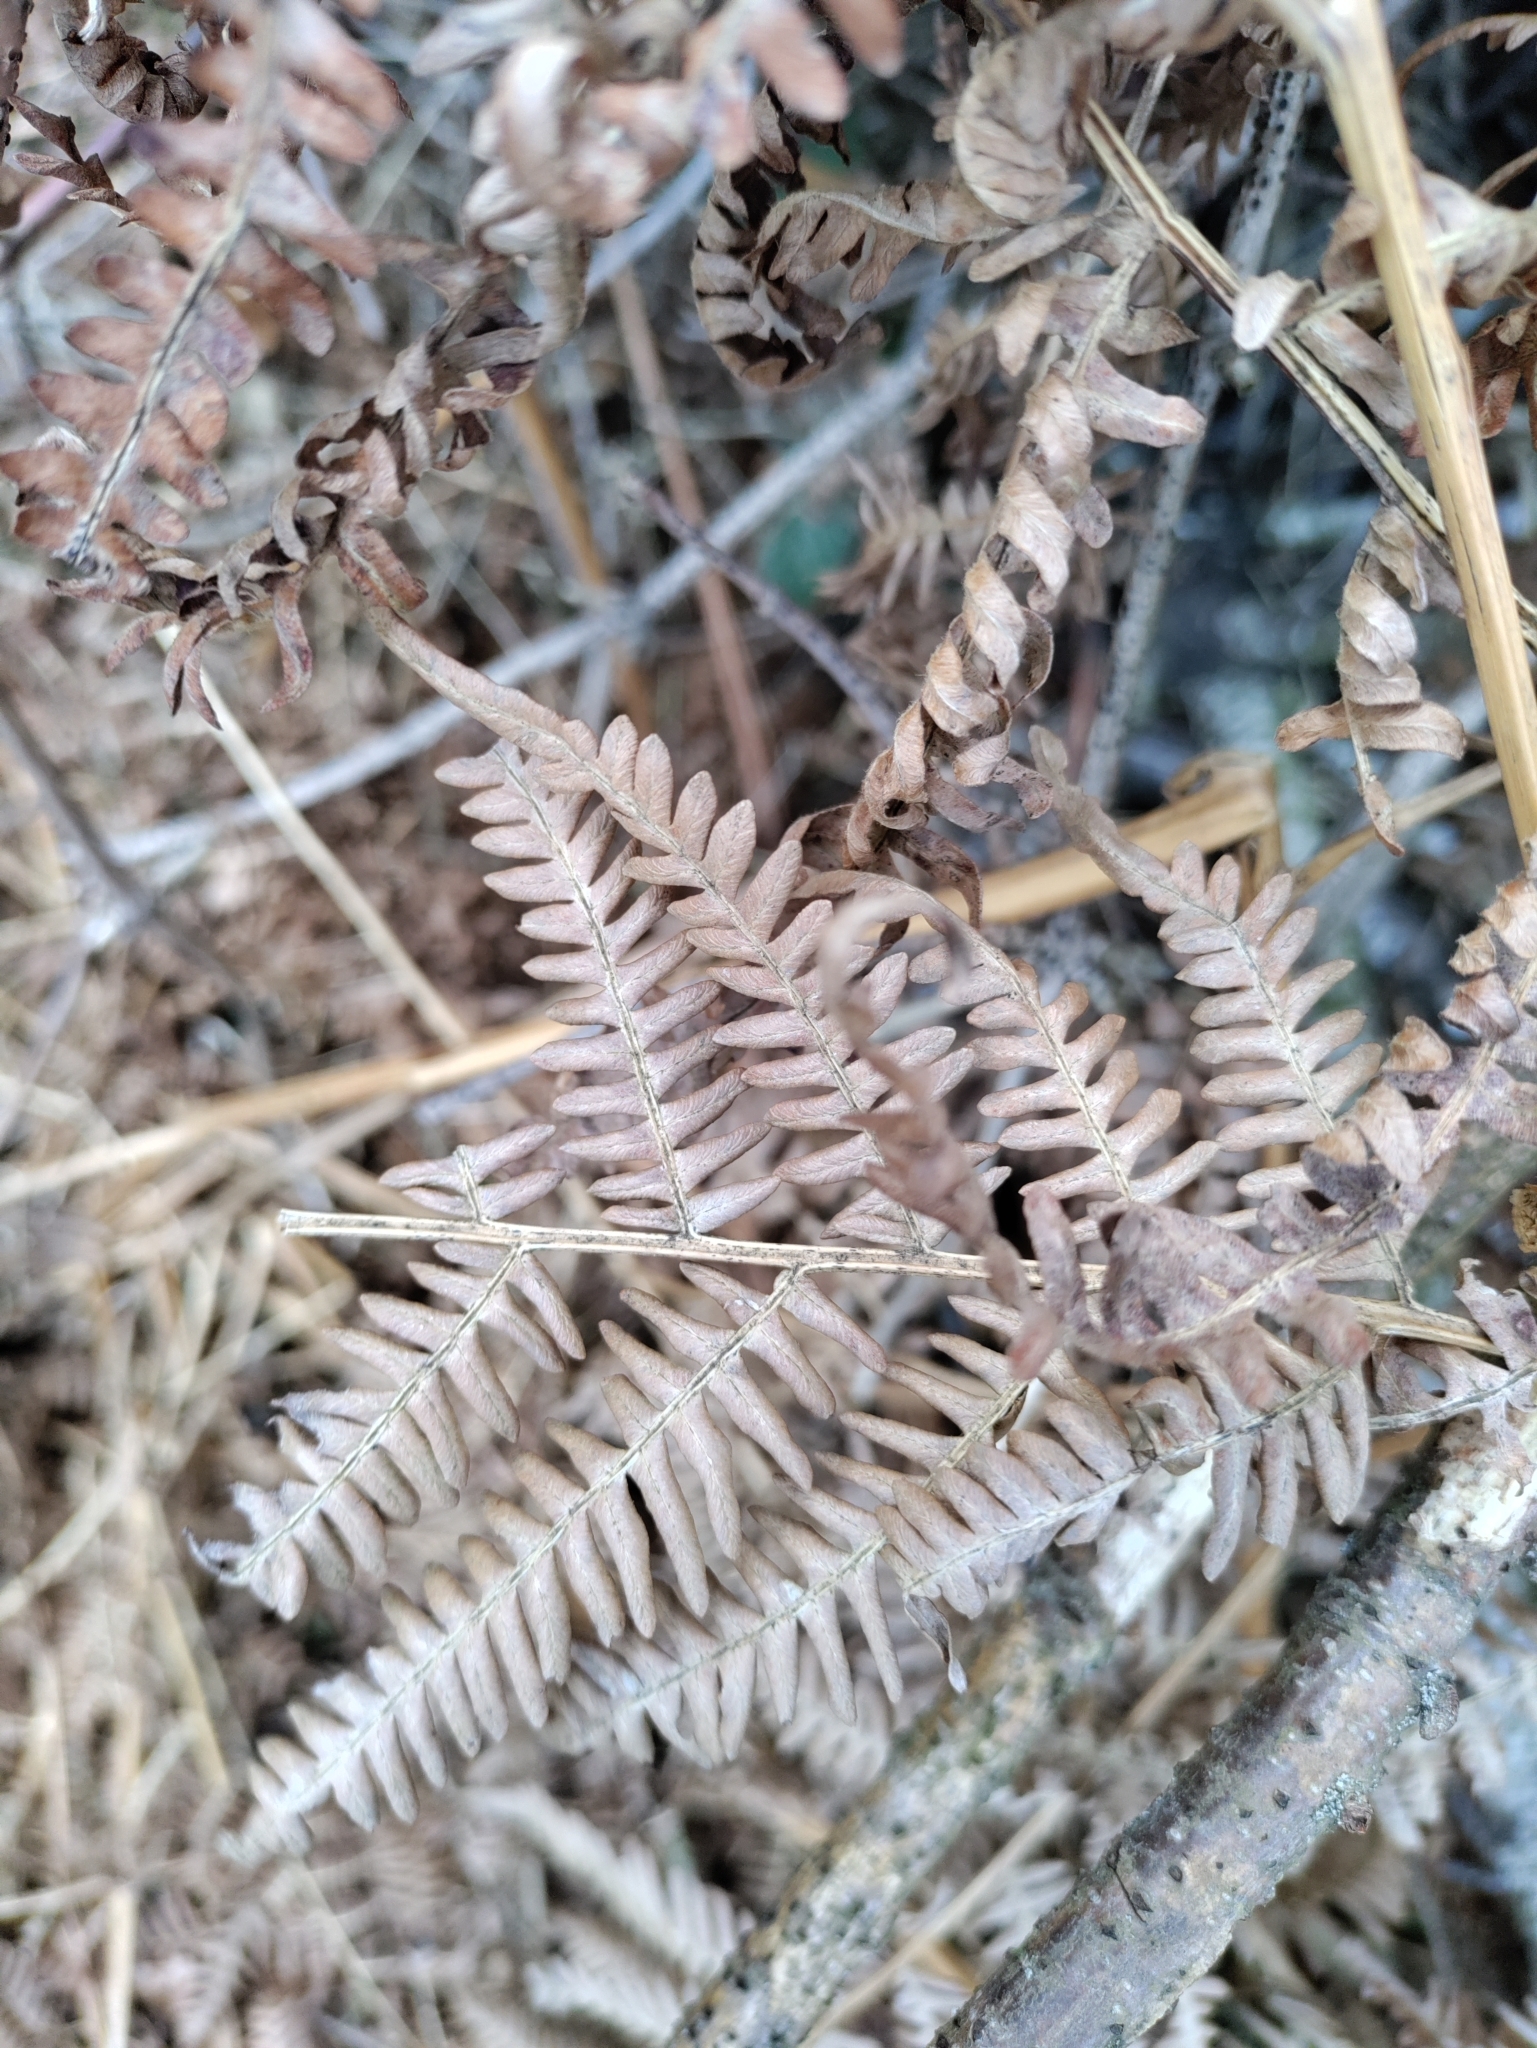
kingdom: Plantae
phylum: Tracheophyta
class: Polypodiopsida
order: Polypodiales
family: Dennstaedtiaceae
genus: Pteridium
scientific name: Pteridium aquilinum
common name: Bracken
